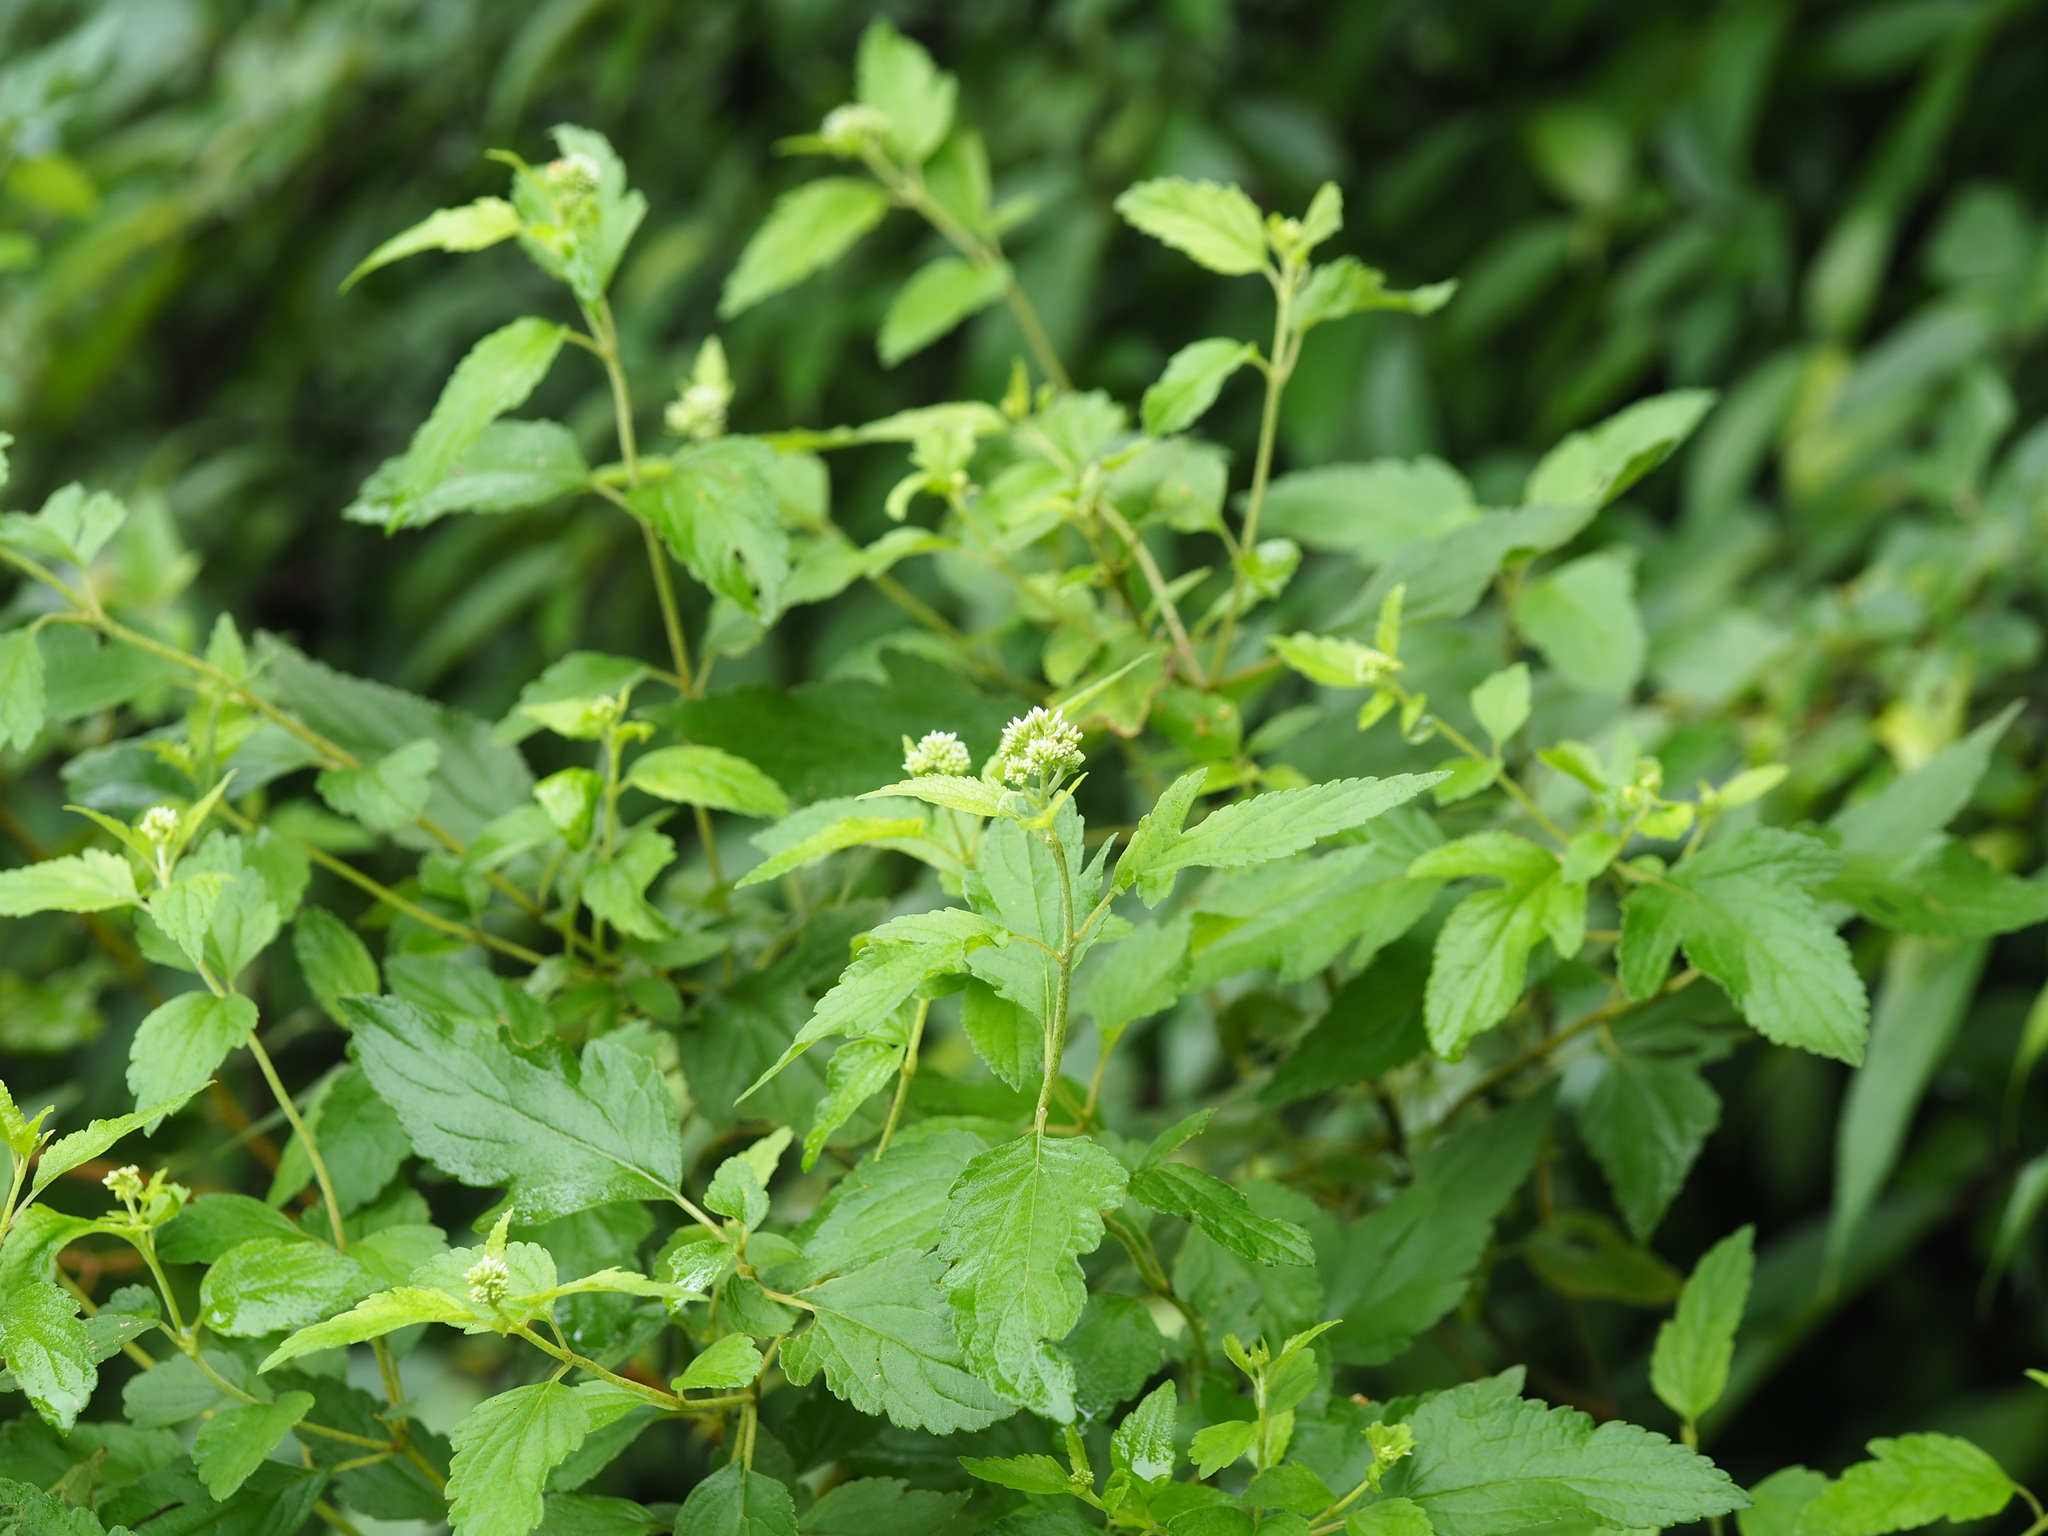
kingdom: Plantae
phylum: Tracheophyta
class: Magnoliopsida
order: Asterales
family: Asteraceae
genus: Eupatorium
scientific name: Eupatorium formosanum
